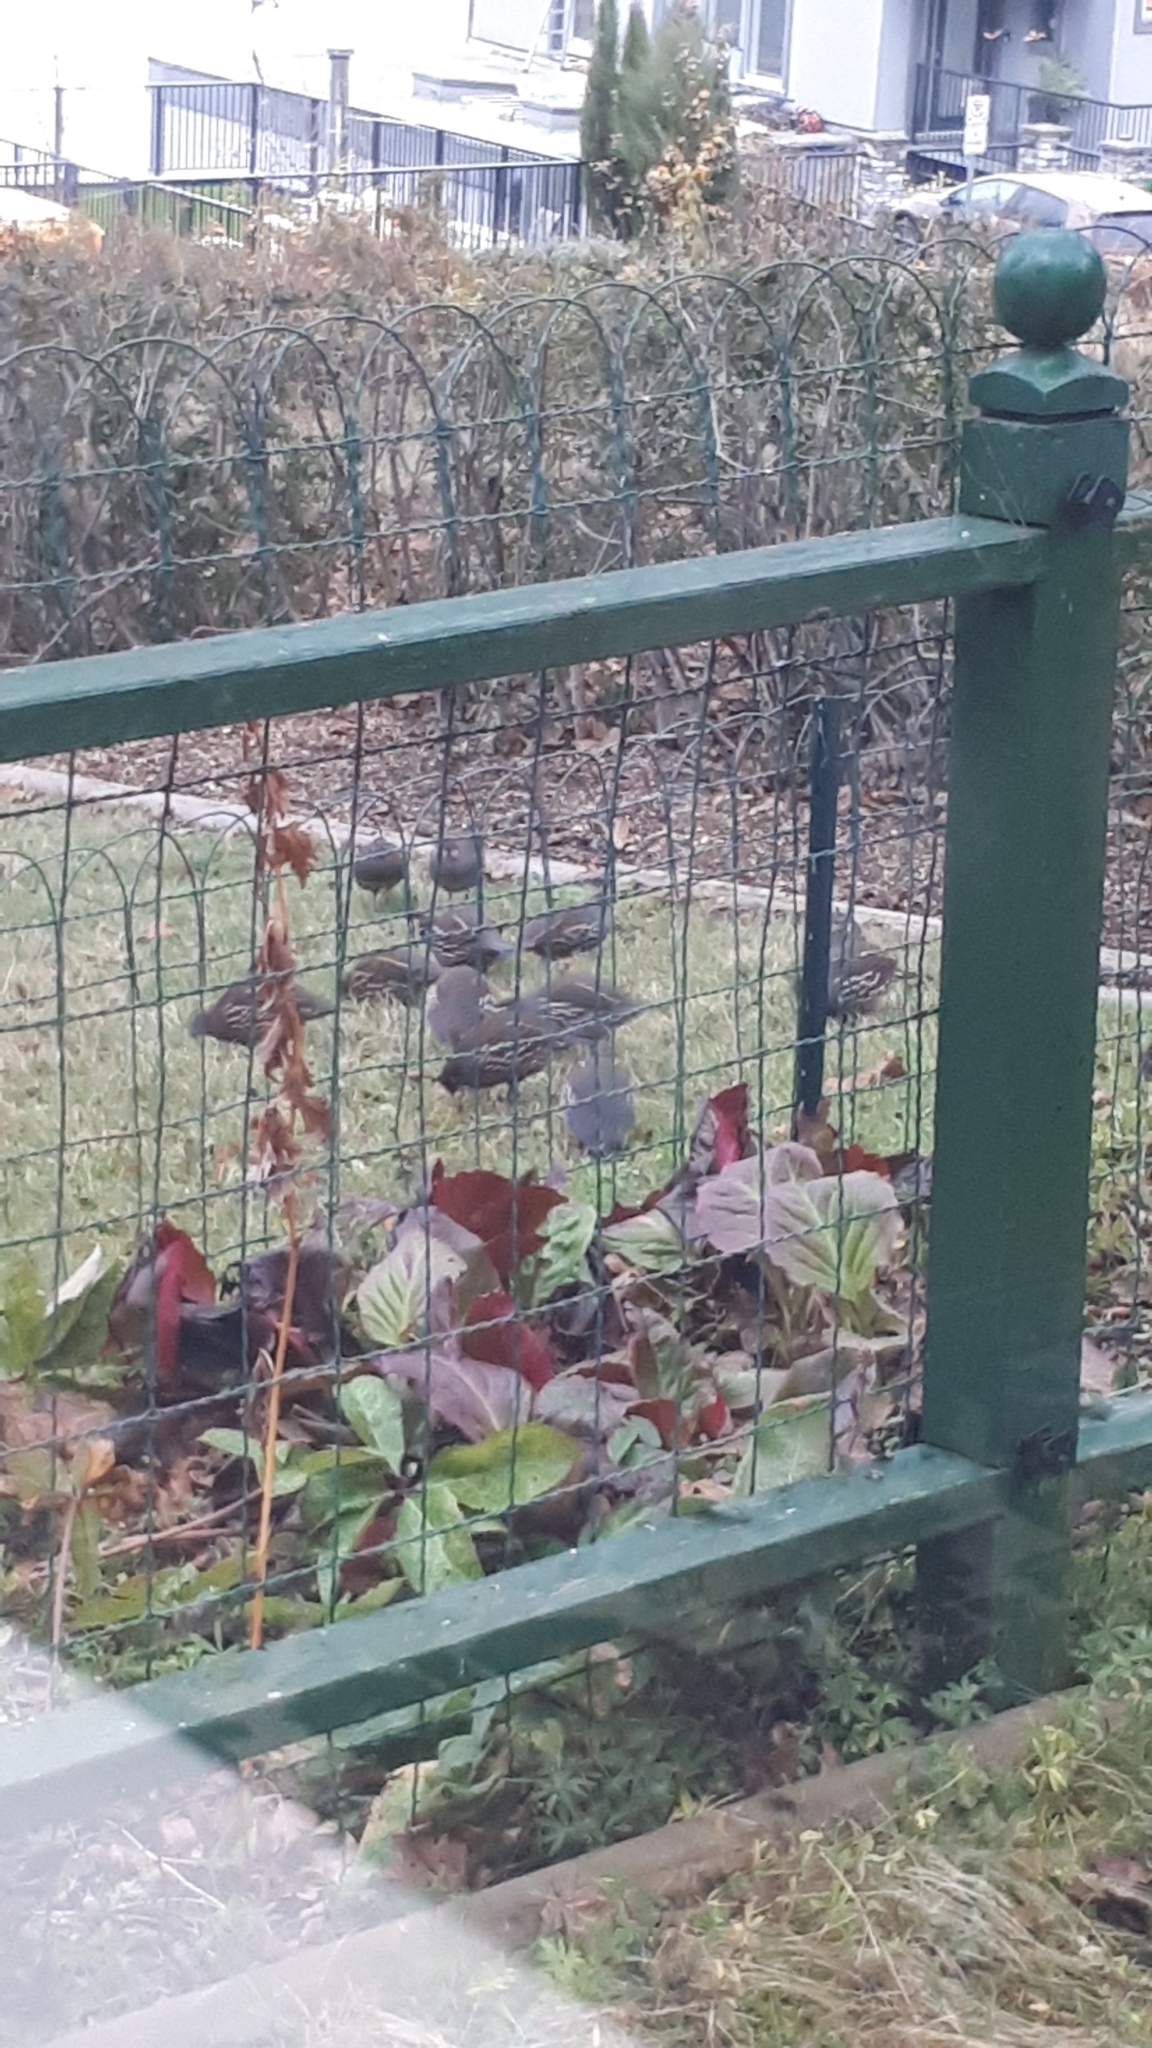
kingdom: Animalia
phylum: Chordata
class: Aves
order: Galliformes
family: Odontophoridae
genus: Callipepla
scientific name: Callipepla californica
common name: California quail
